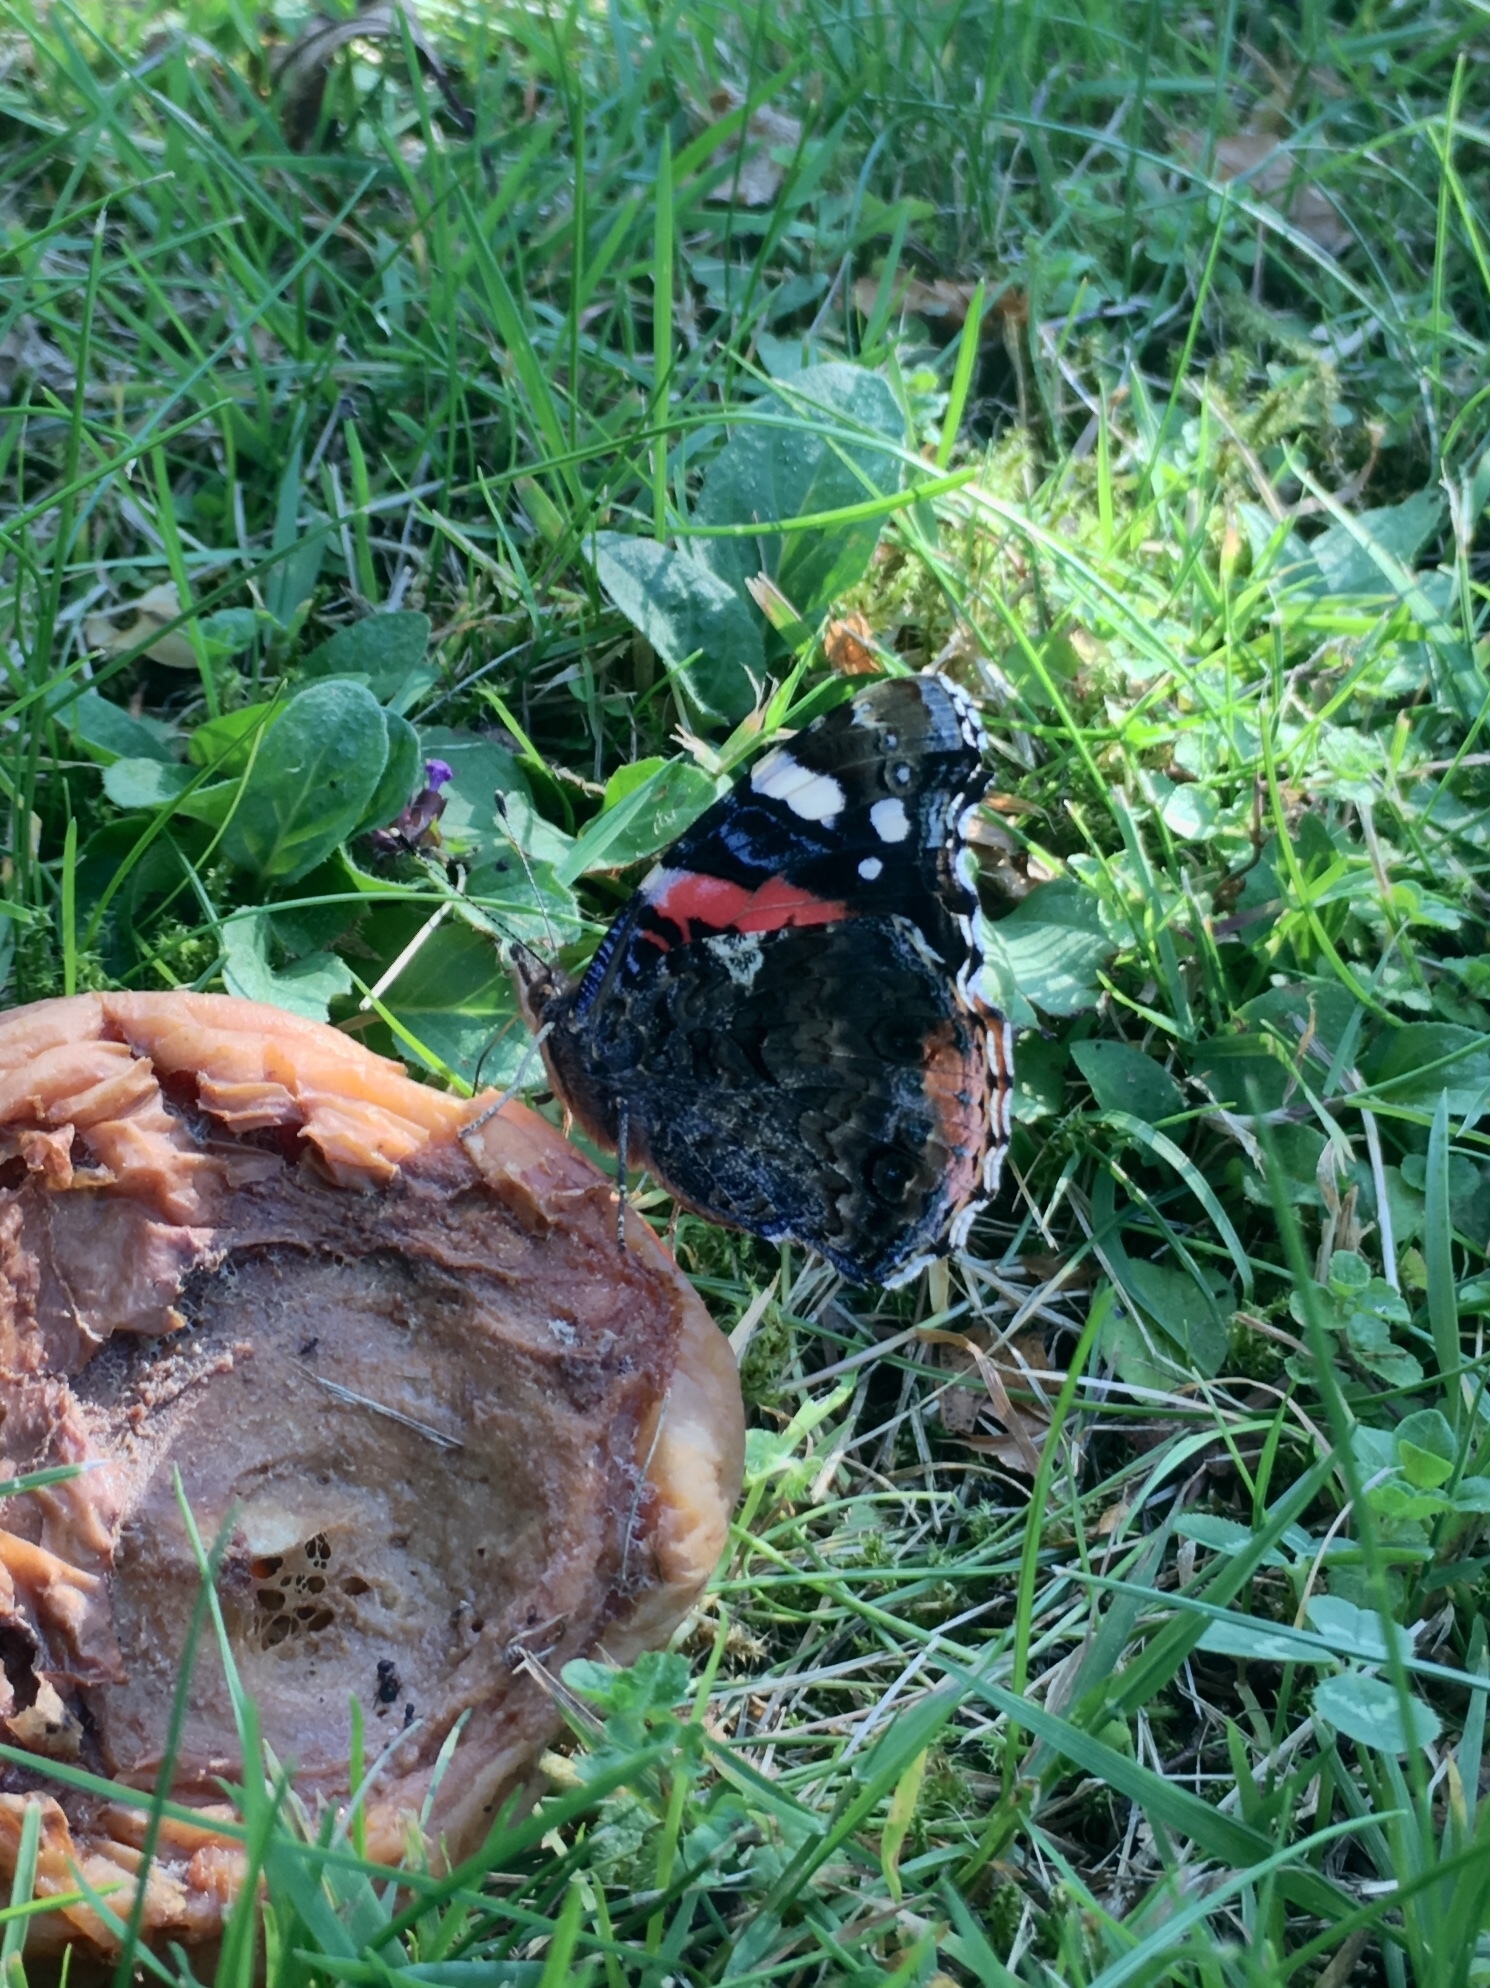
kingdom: Animalia
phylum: Arthropoda
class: Insecta
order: Lepidoptera
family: Nymphalidae
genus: Vanessa
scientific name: Vanessa atalanta
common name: Red admiral
